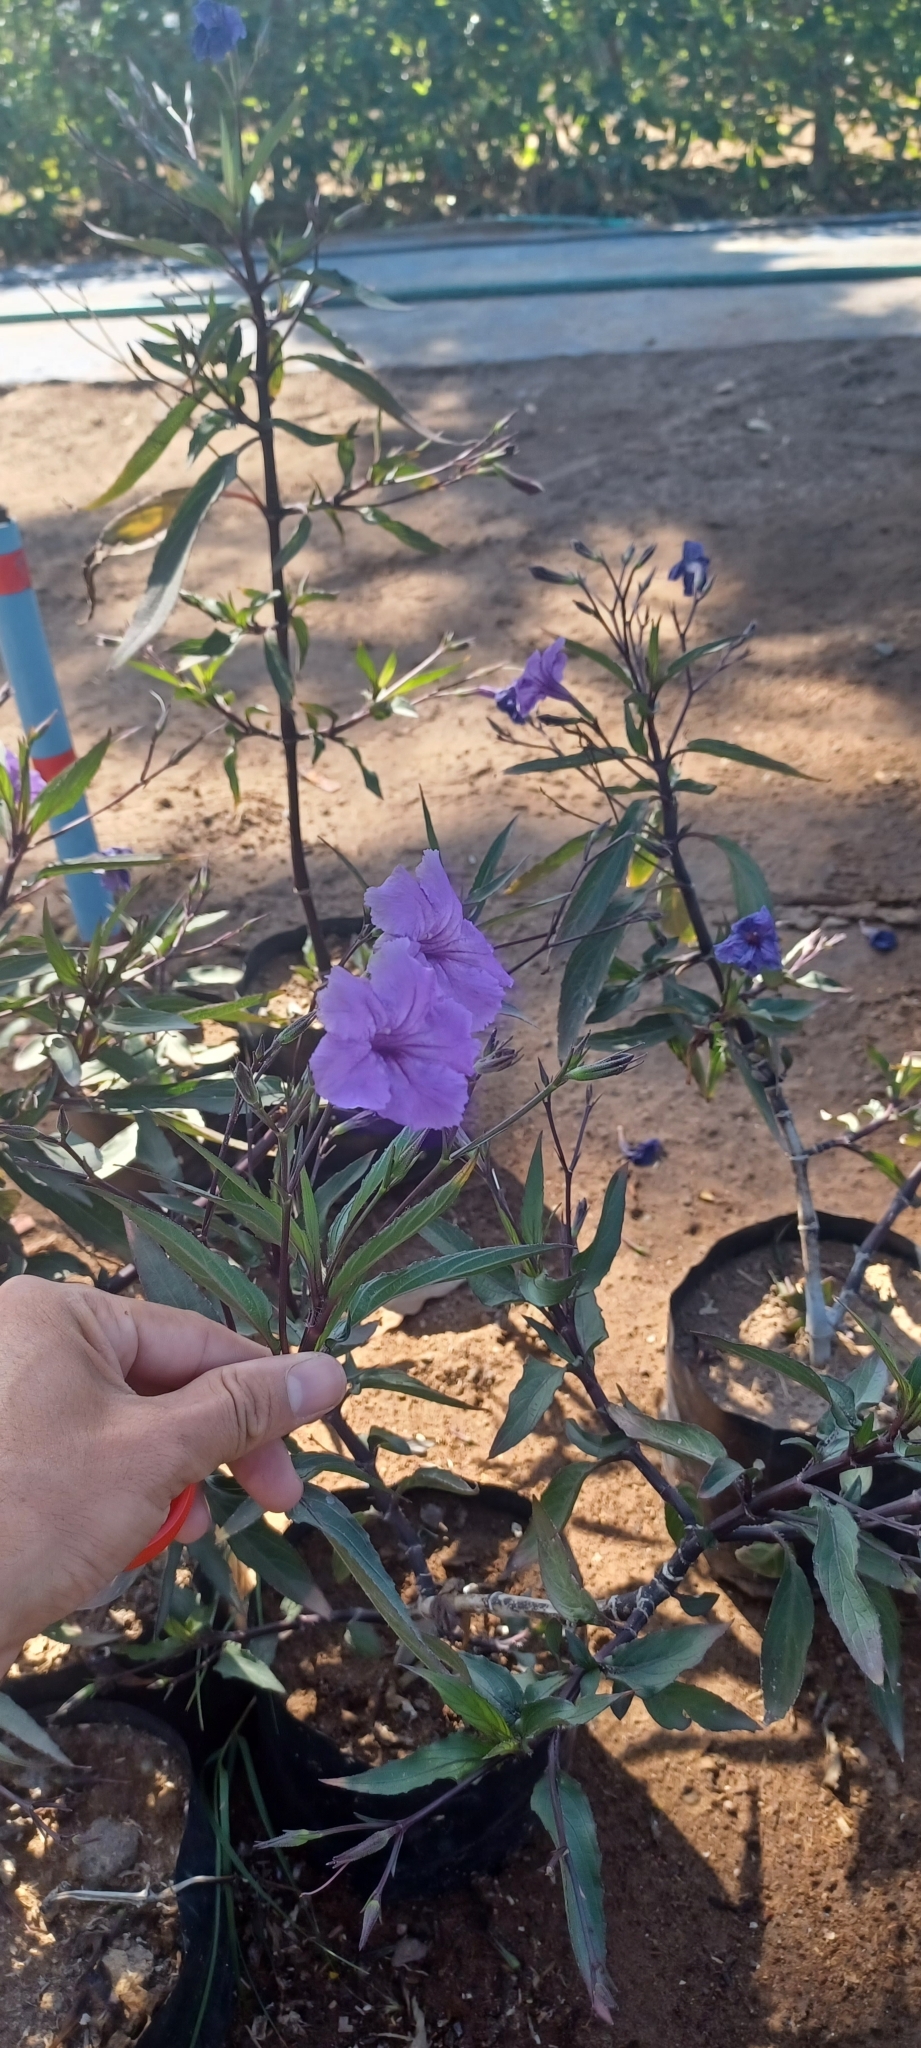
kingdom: Plantae
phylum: Tracheophyta
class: Magnoliopsida
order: Lamiales
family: Acanthaceae
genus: Ruellia
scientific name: Ruellia simplex
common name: Softseed wild petunia
